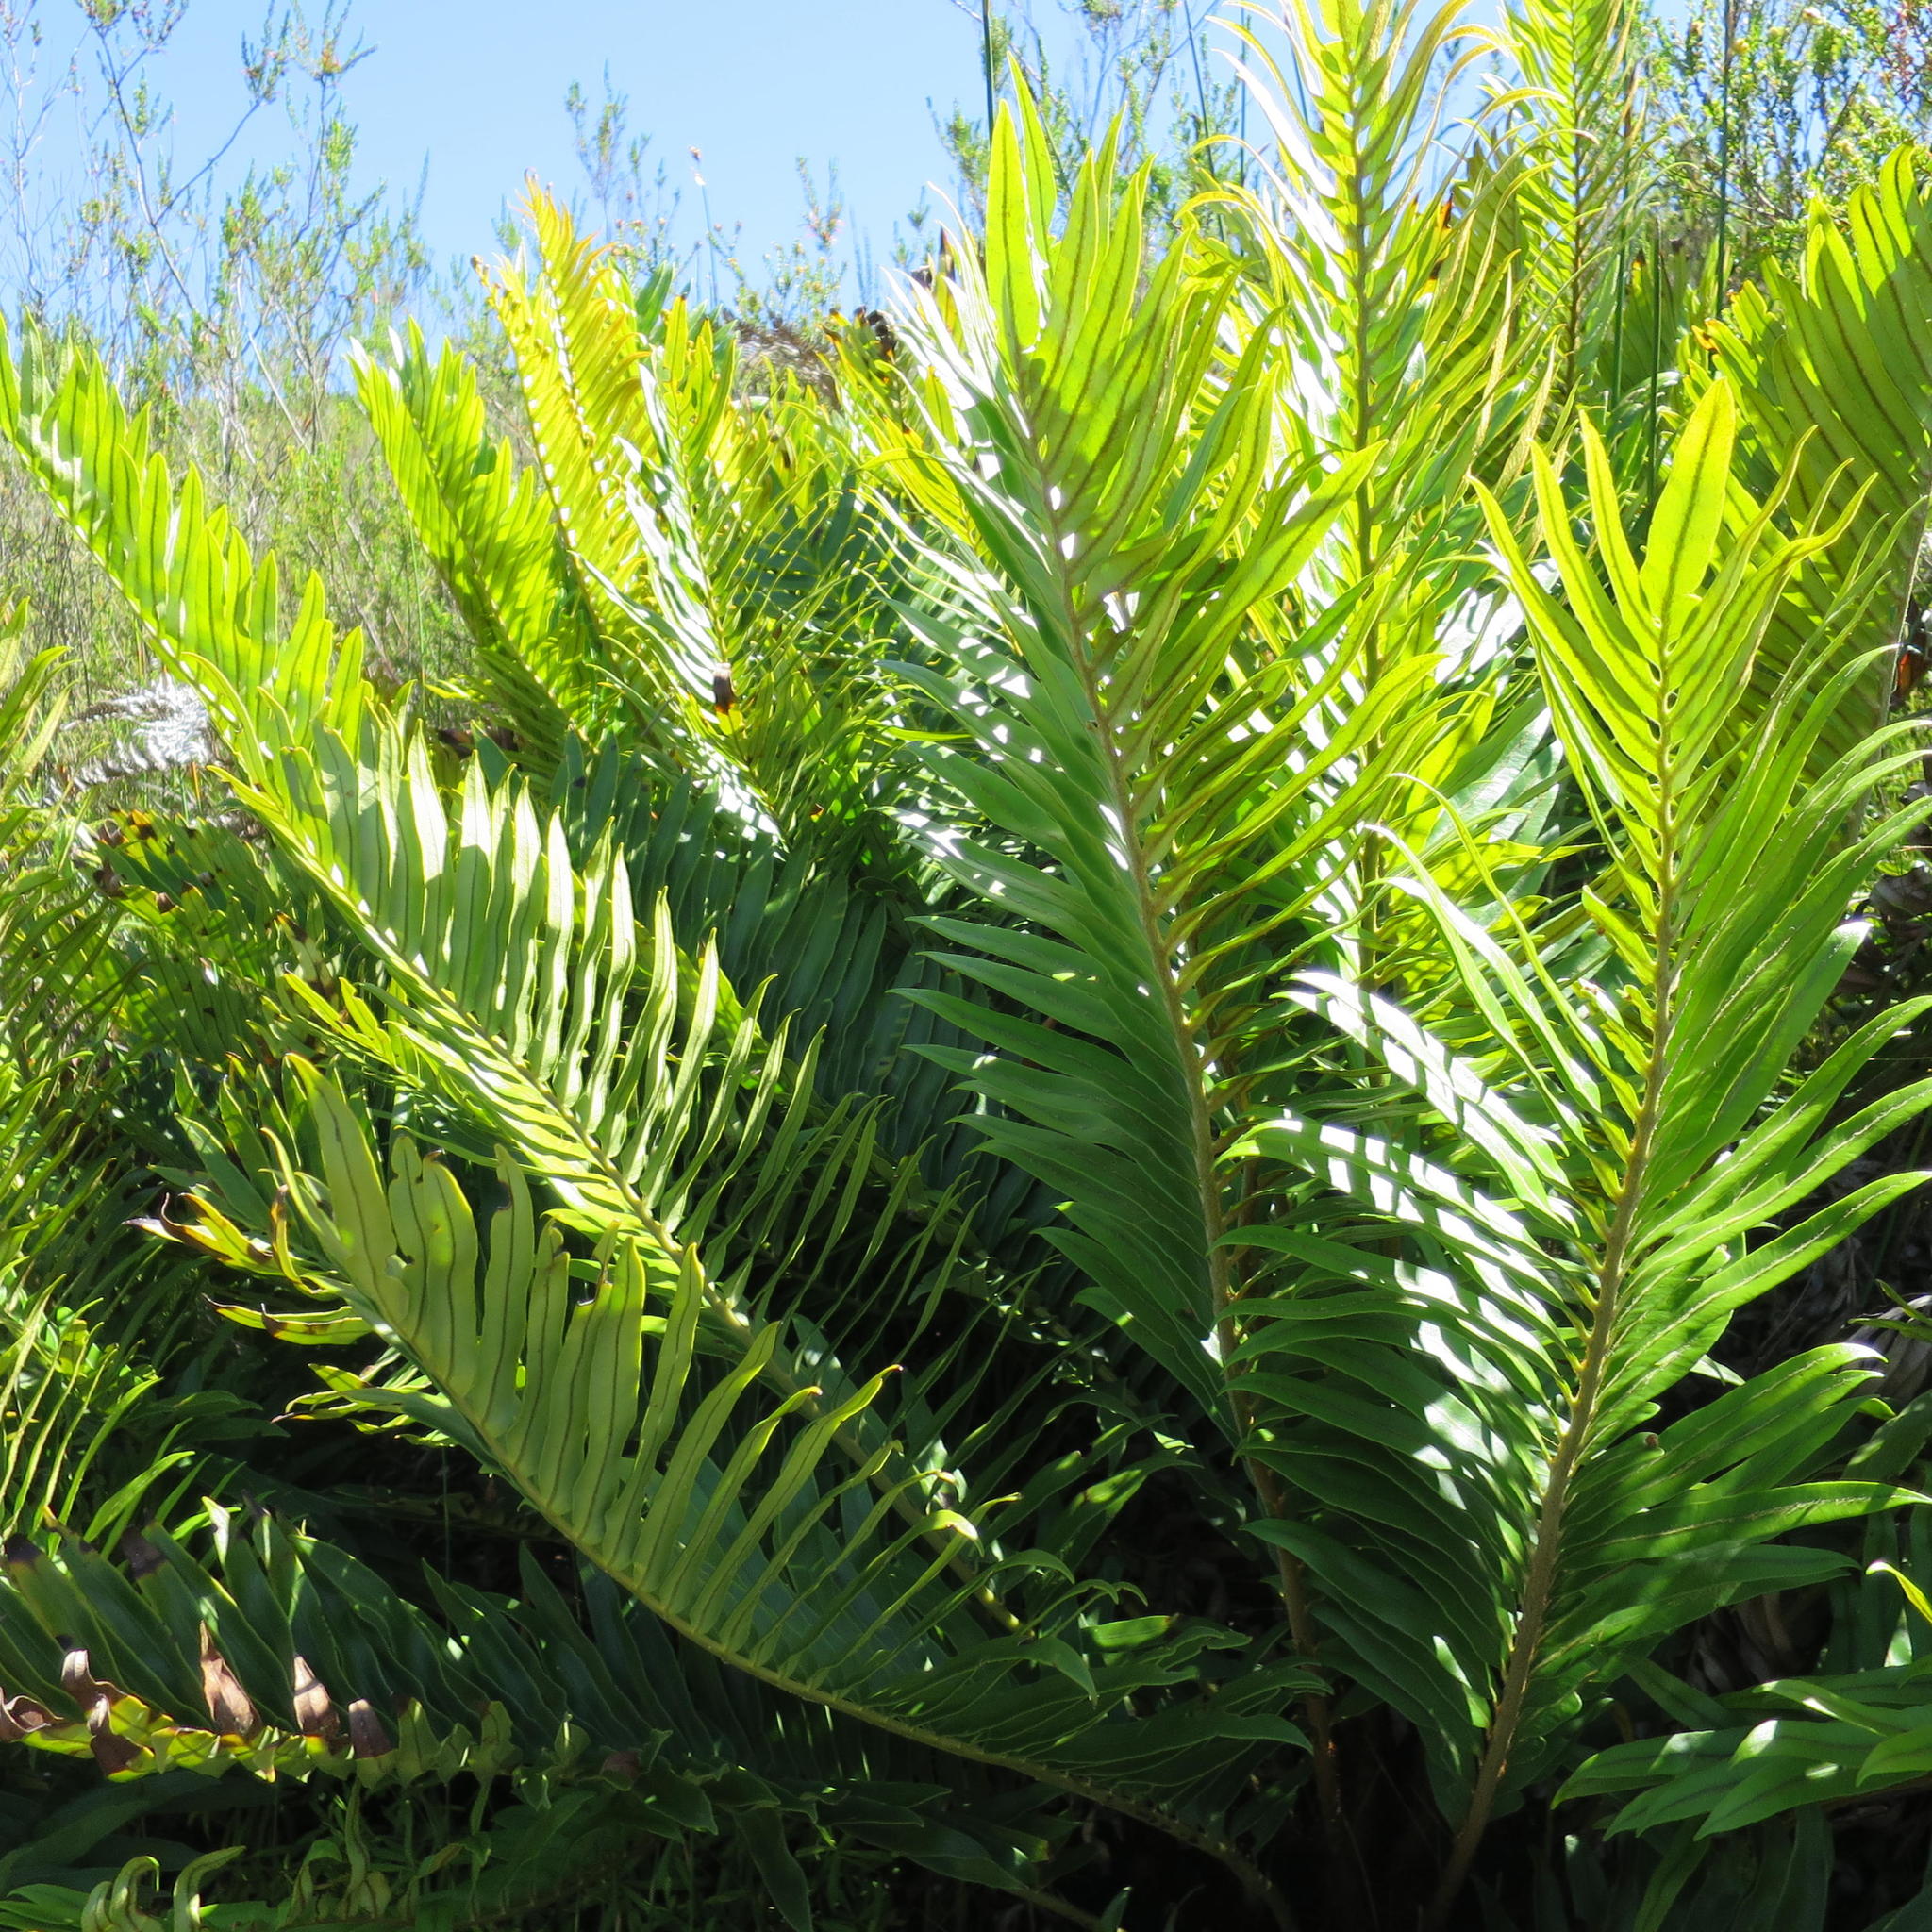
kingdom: Plantae
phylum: Tracheophyta
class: Polypodiopsida
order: Polypodiales
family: Blechnaceae
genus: Lomariocycas
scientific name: Lomariocycas tabularis
